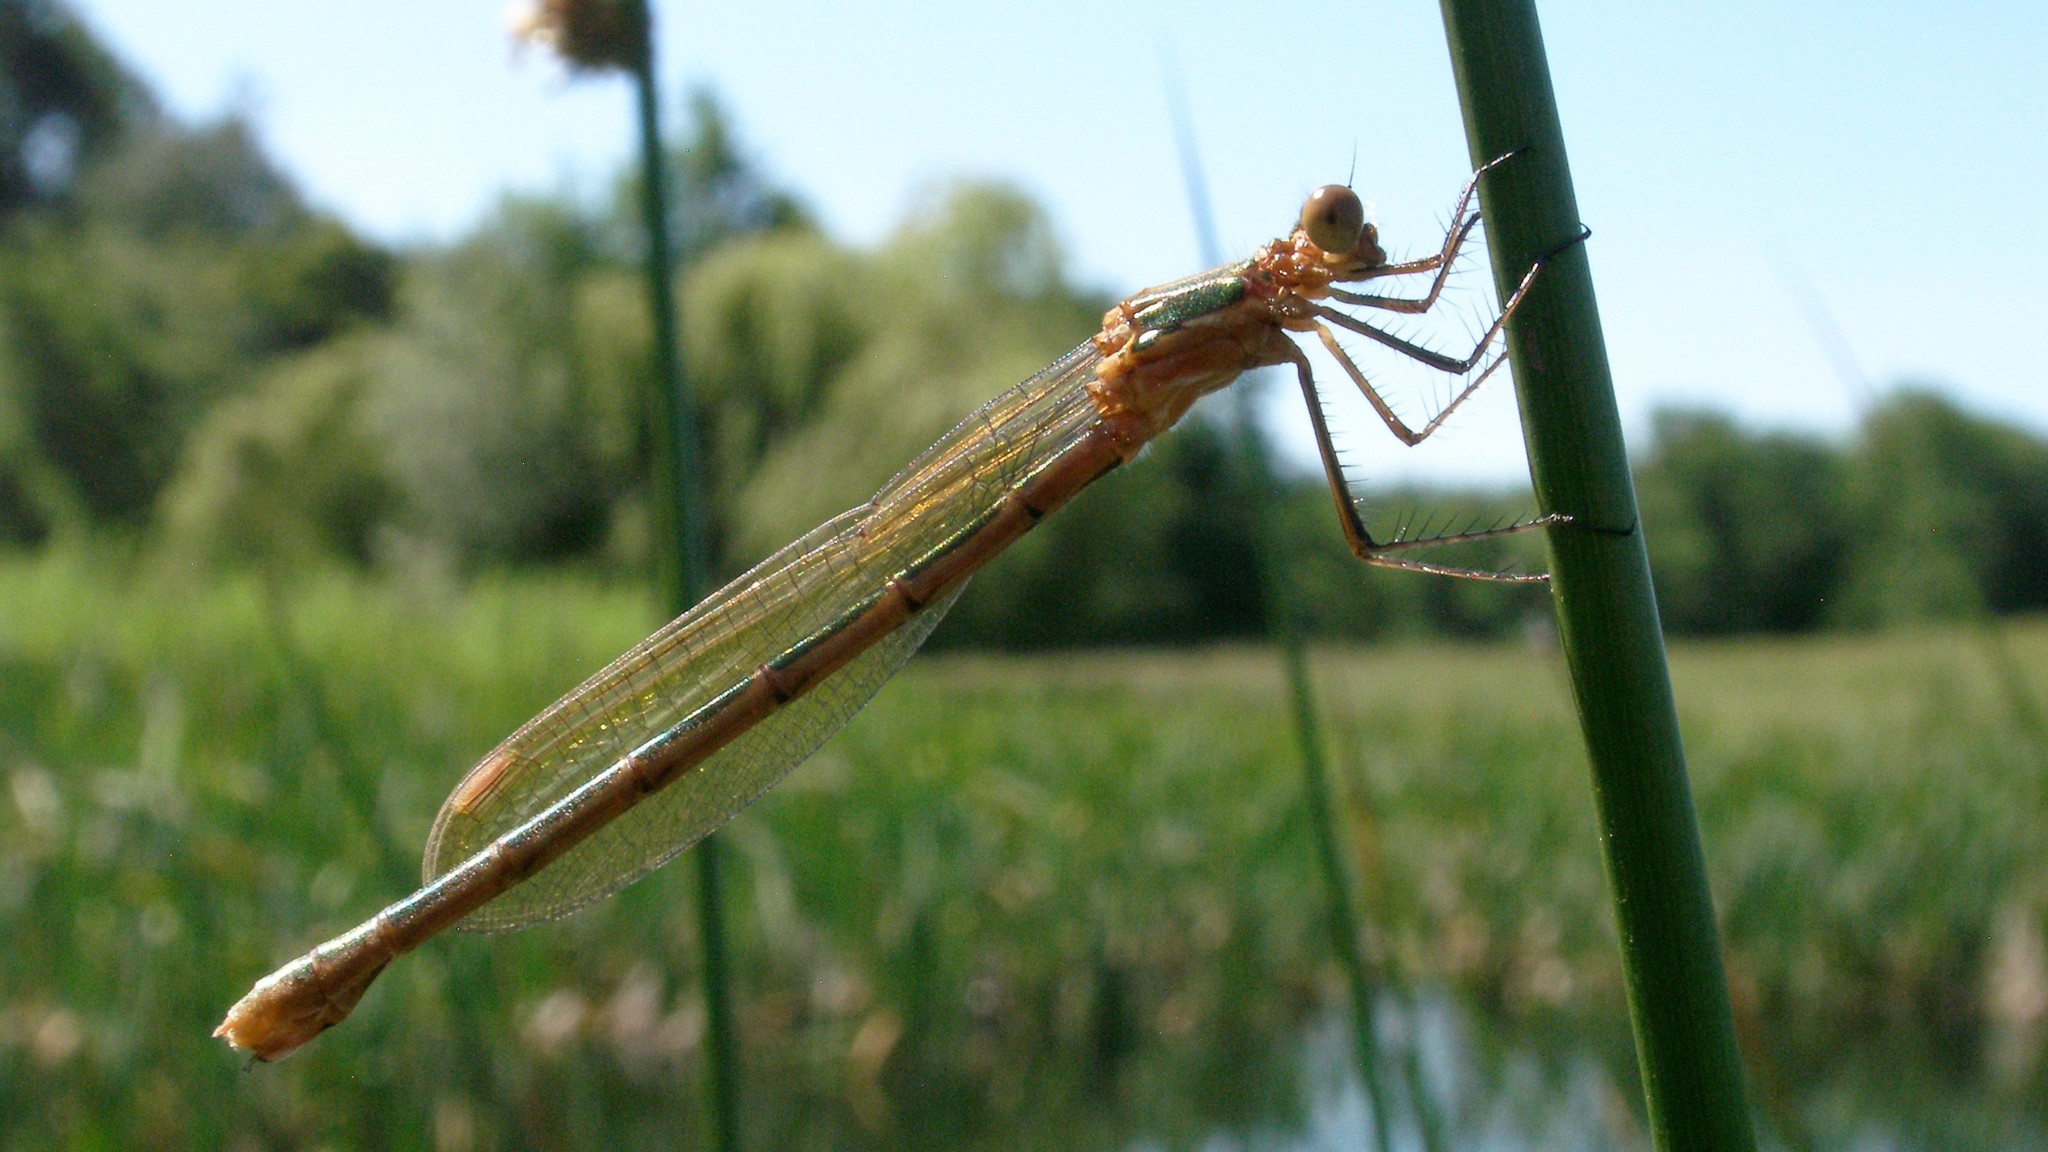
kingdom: Animalia
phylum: Arthropoda
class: Insecta
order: Odonata
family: Lestidae
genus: Lestes
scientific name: Lestes sponsa
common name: Common spreadwing
